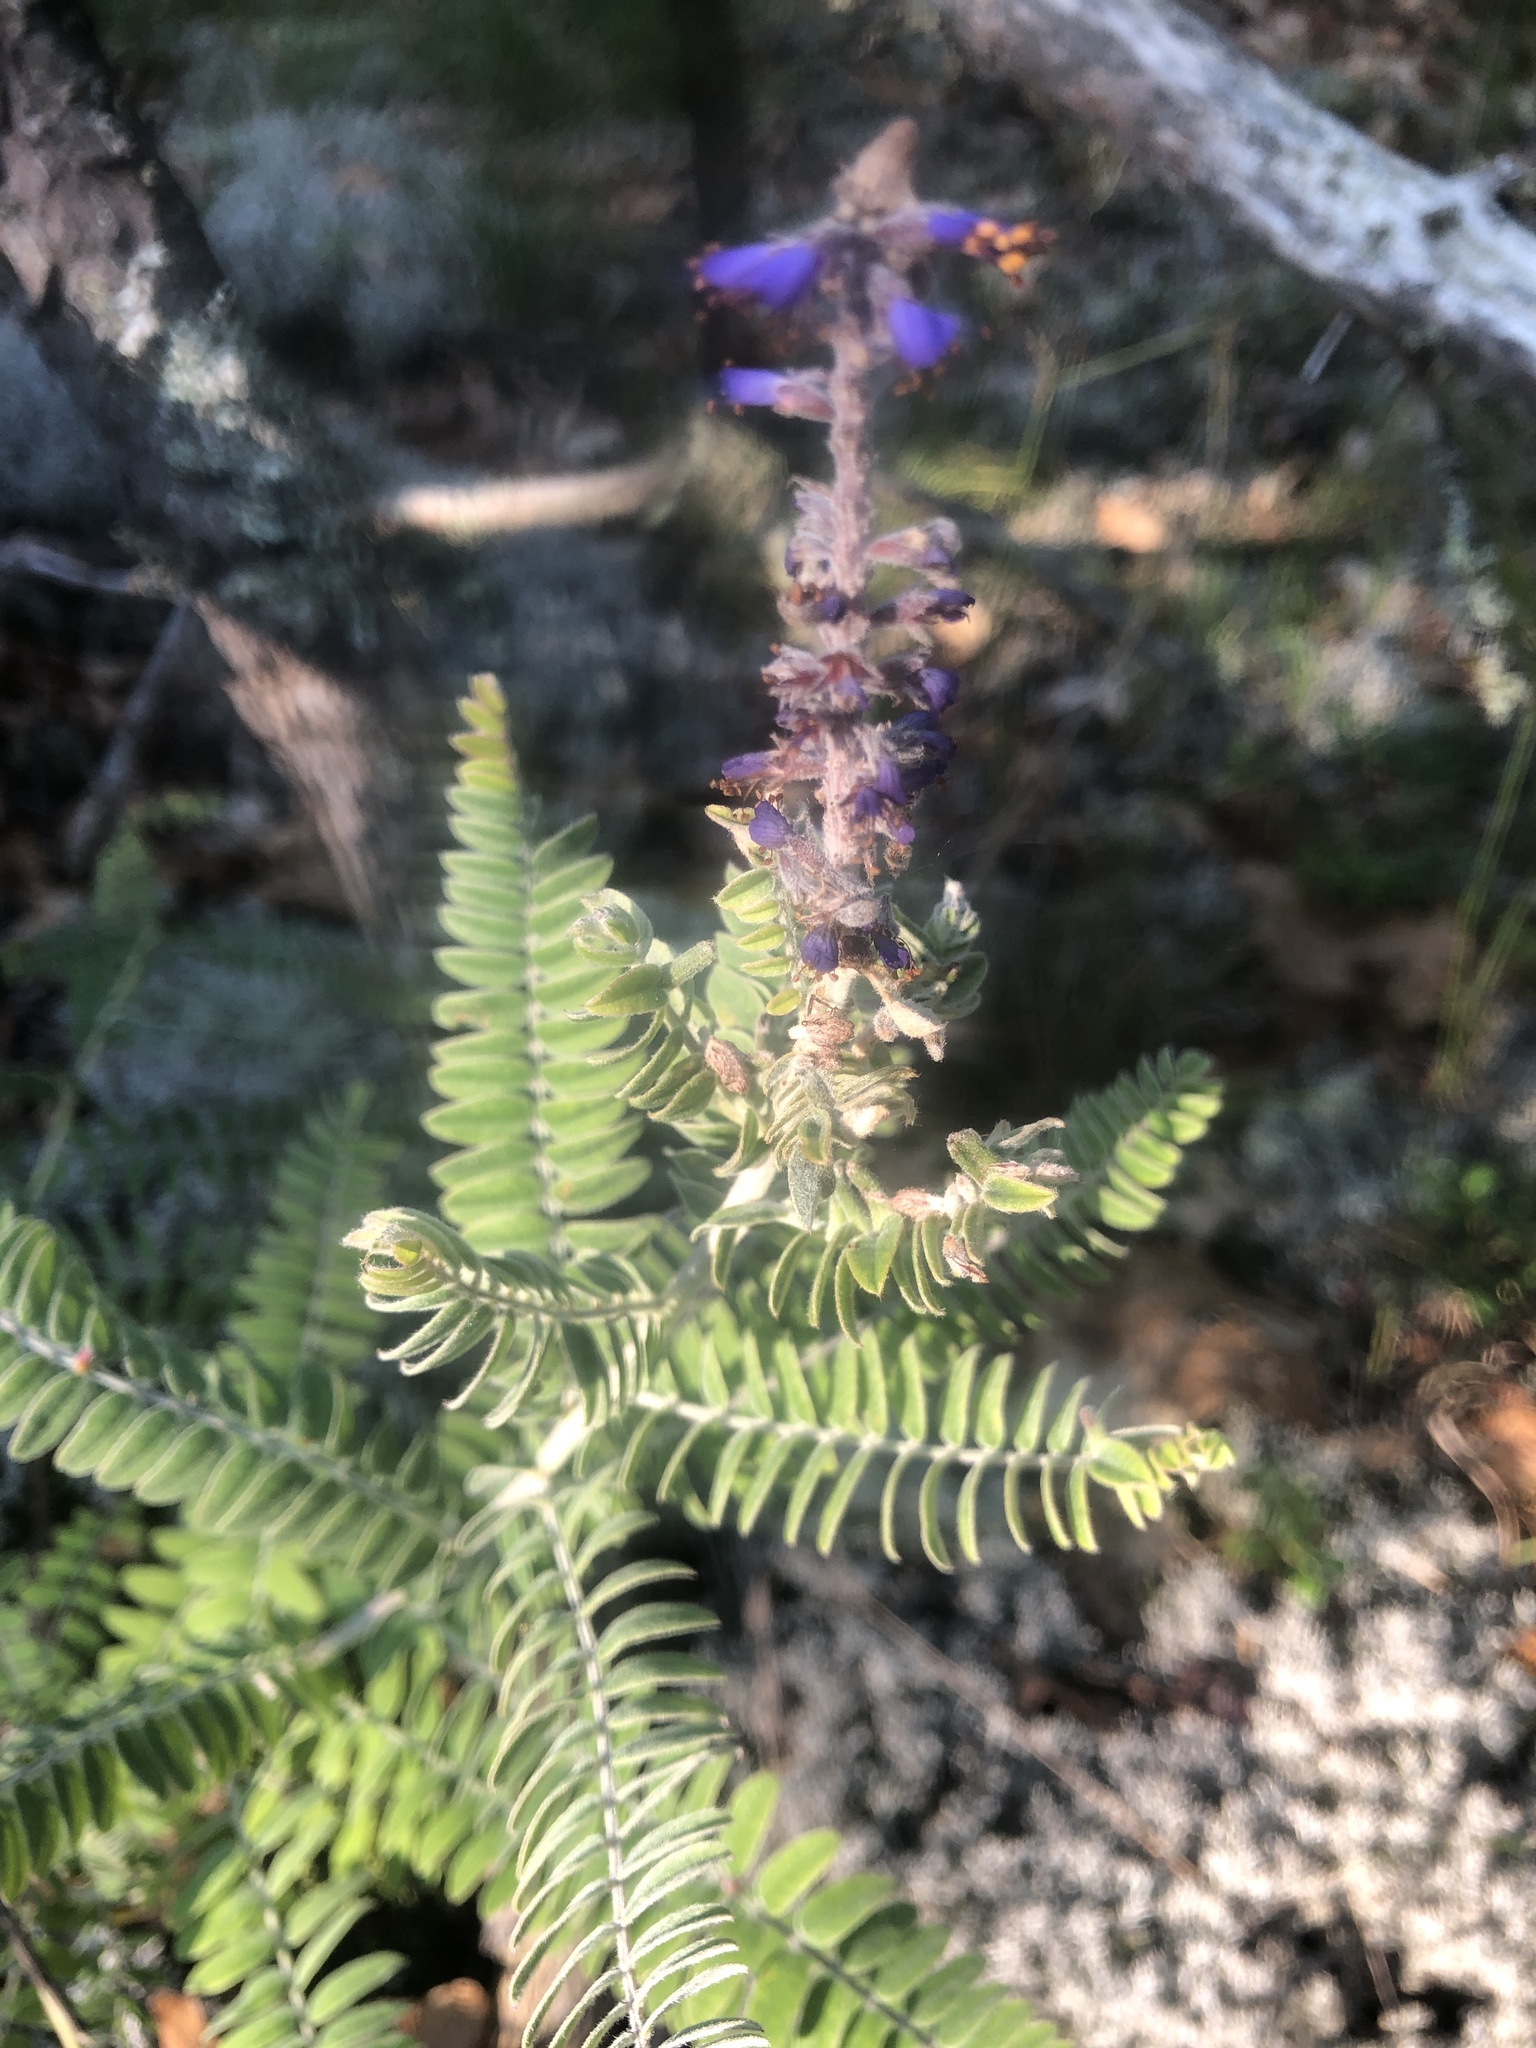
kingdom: Plantae
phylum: Tracheophyta
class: Magnoliopsida
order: Fabales
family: Fabaceae
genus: Amorpha
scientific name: Amorpha canescens
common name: Leadplant
